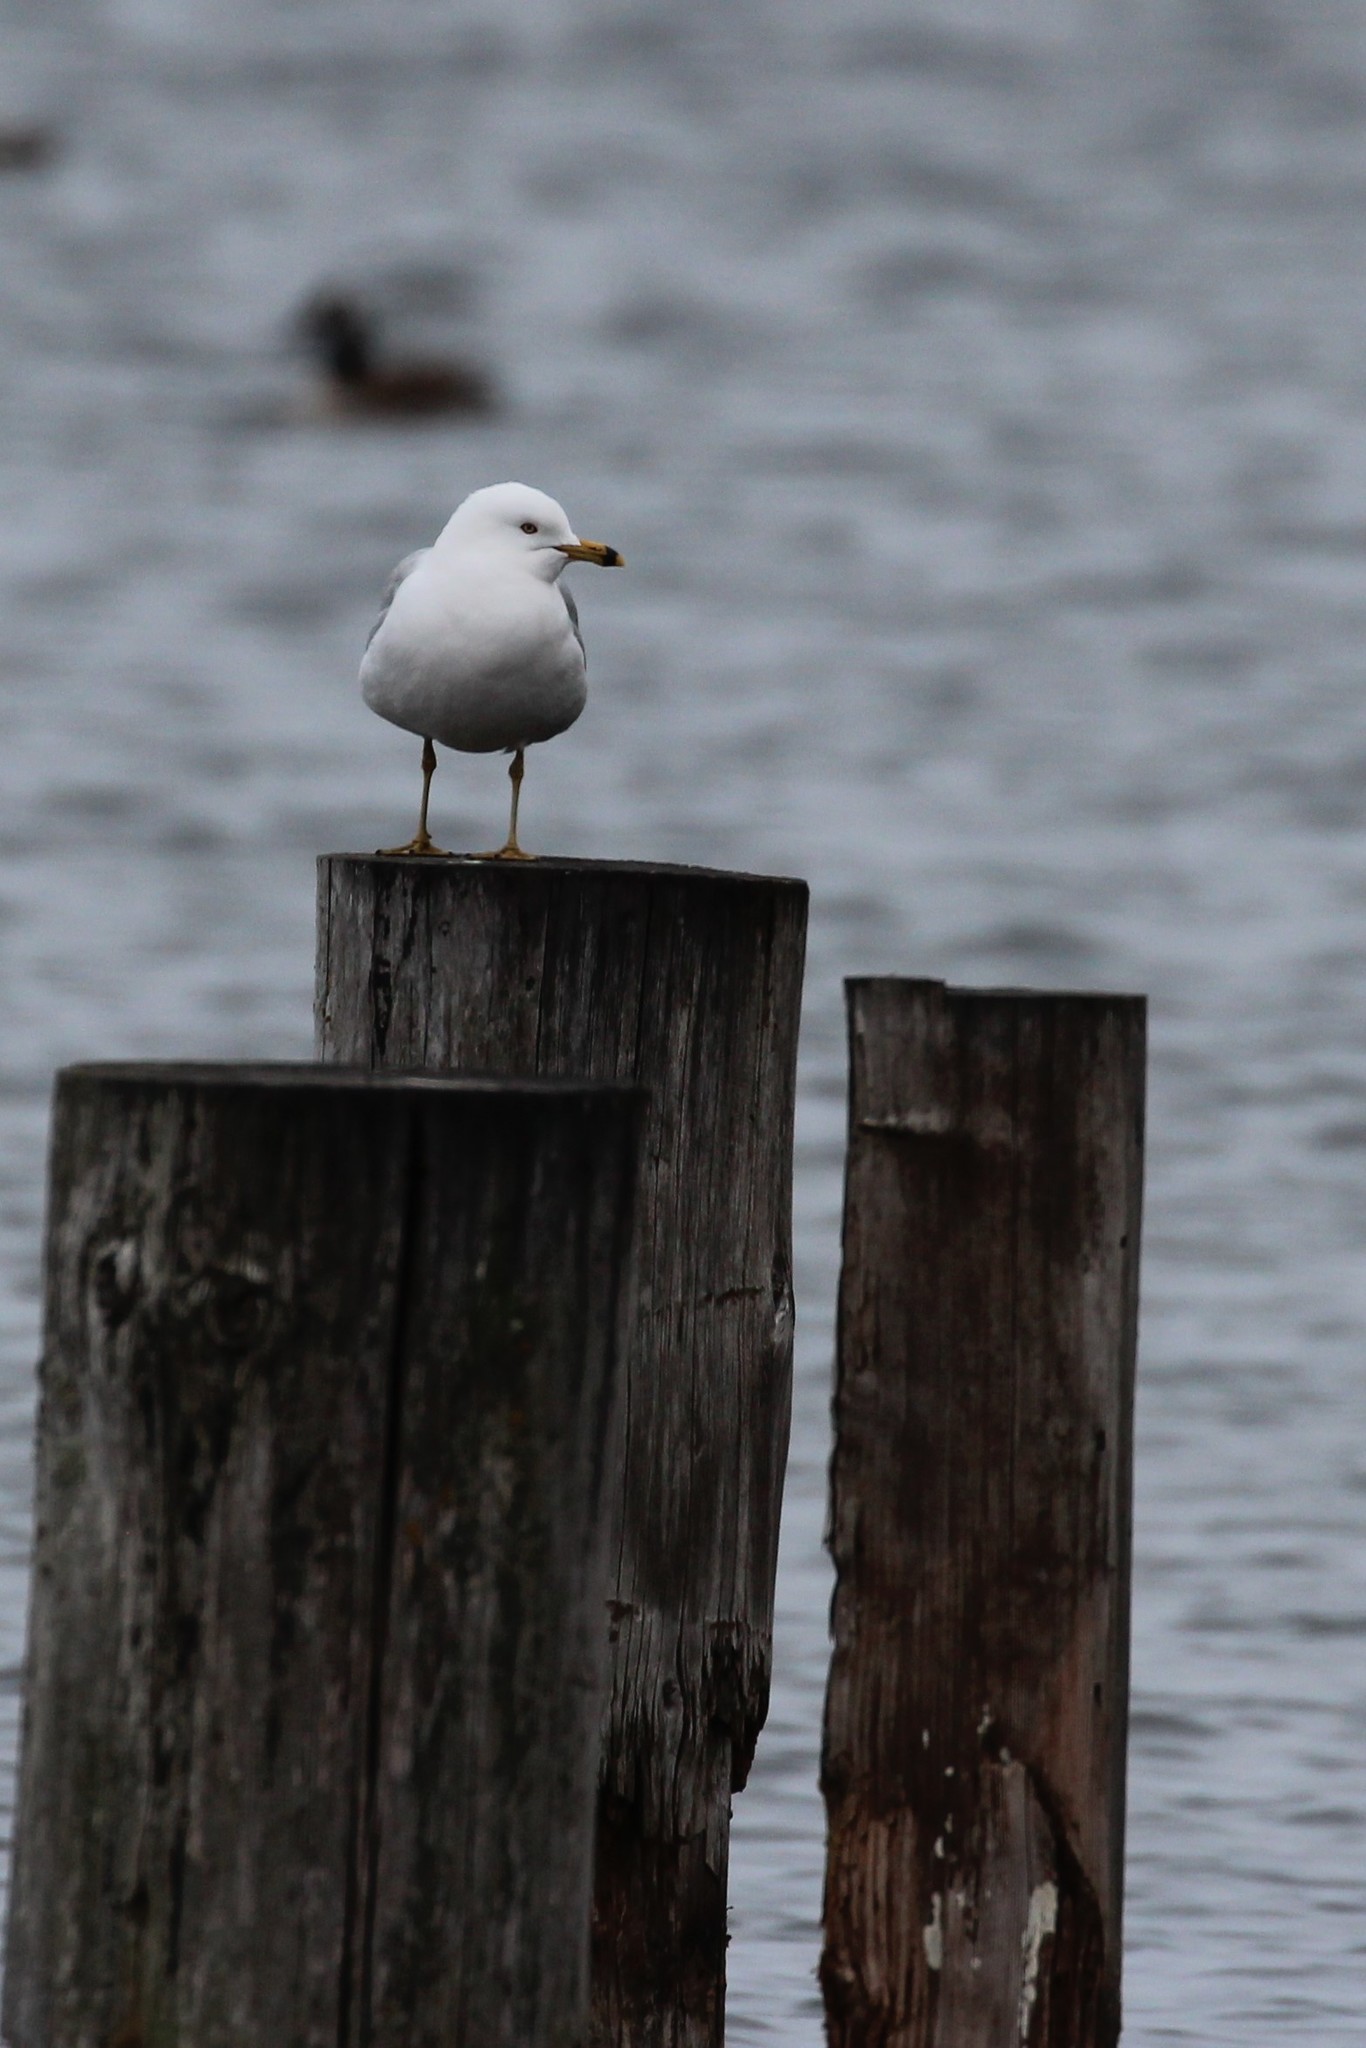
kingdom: Animalia
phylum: Chordata
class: Aves
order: Charadriiformes
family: Laridae
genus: Larus
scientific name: Larus delawarensis
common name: Ring-billed gull
